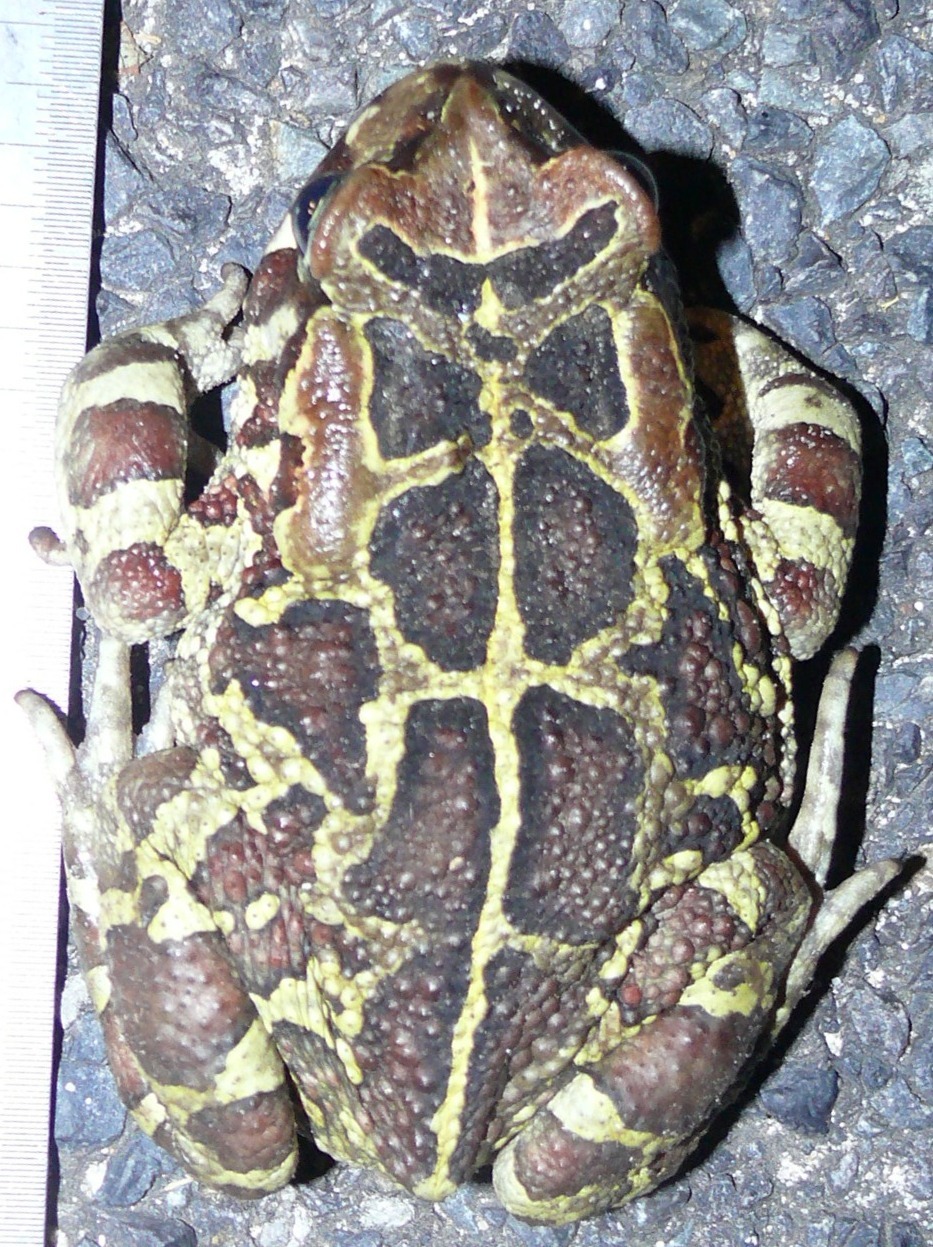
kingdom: Animalia
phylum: Chordata
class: Amphibia
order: Anura
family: Bufonidae
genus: Sclerophrys
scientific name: Sclerophrys pantherina
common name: Panther toad
